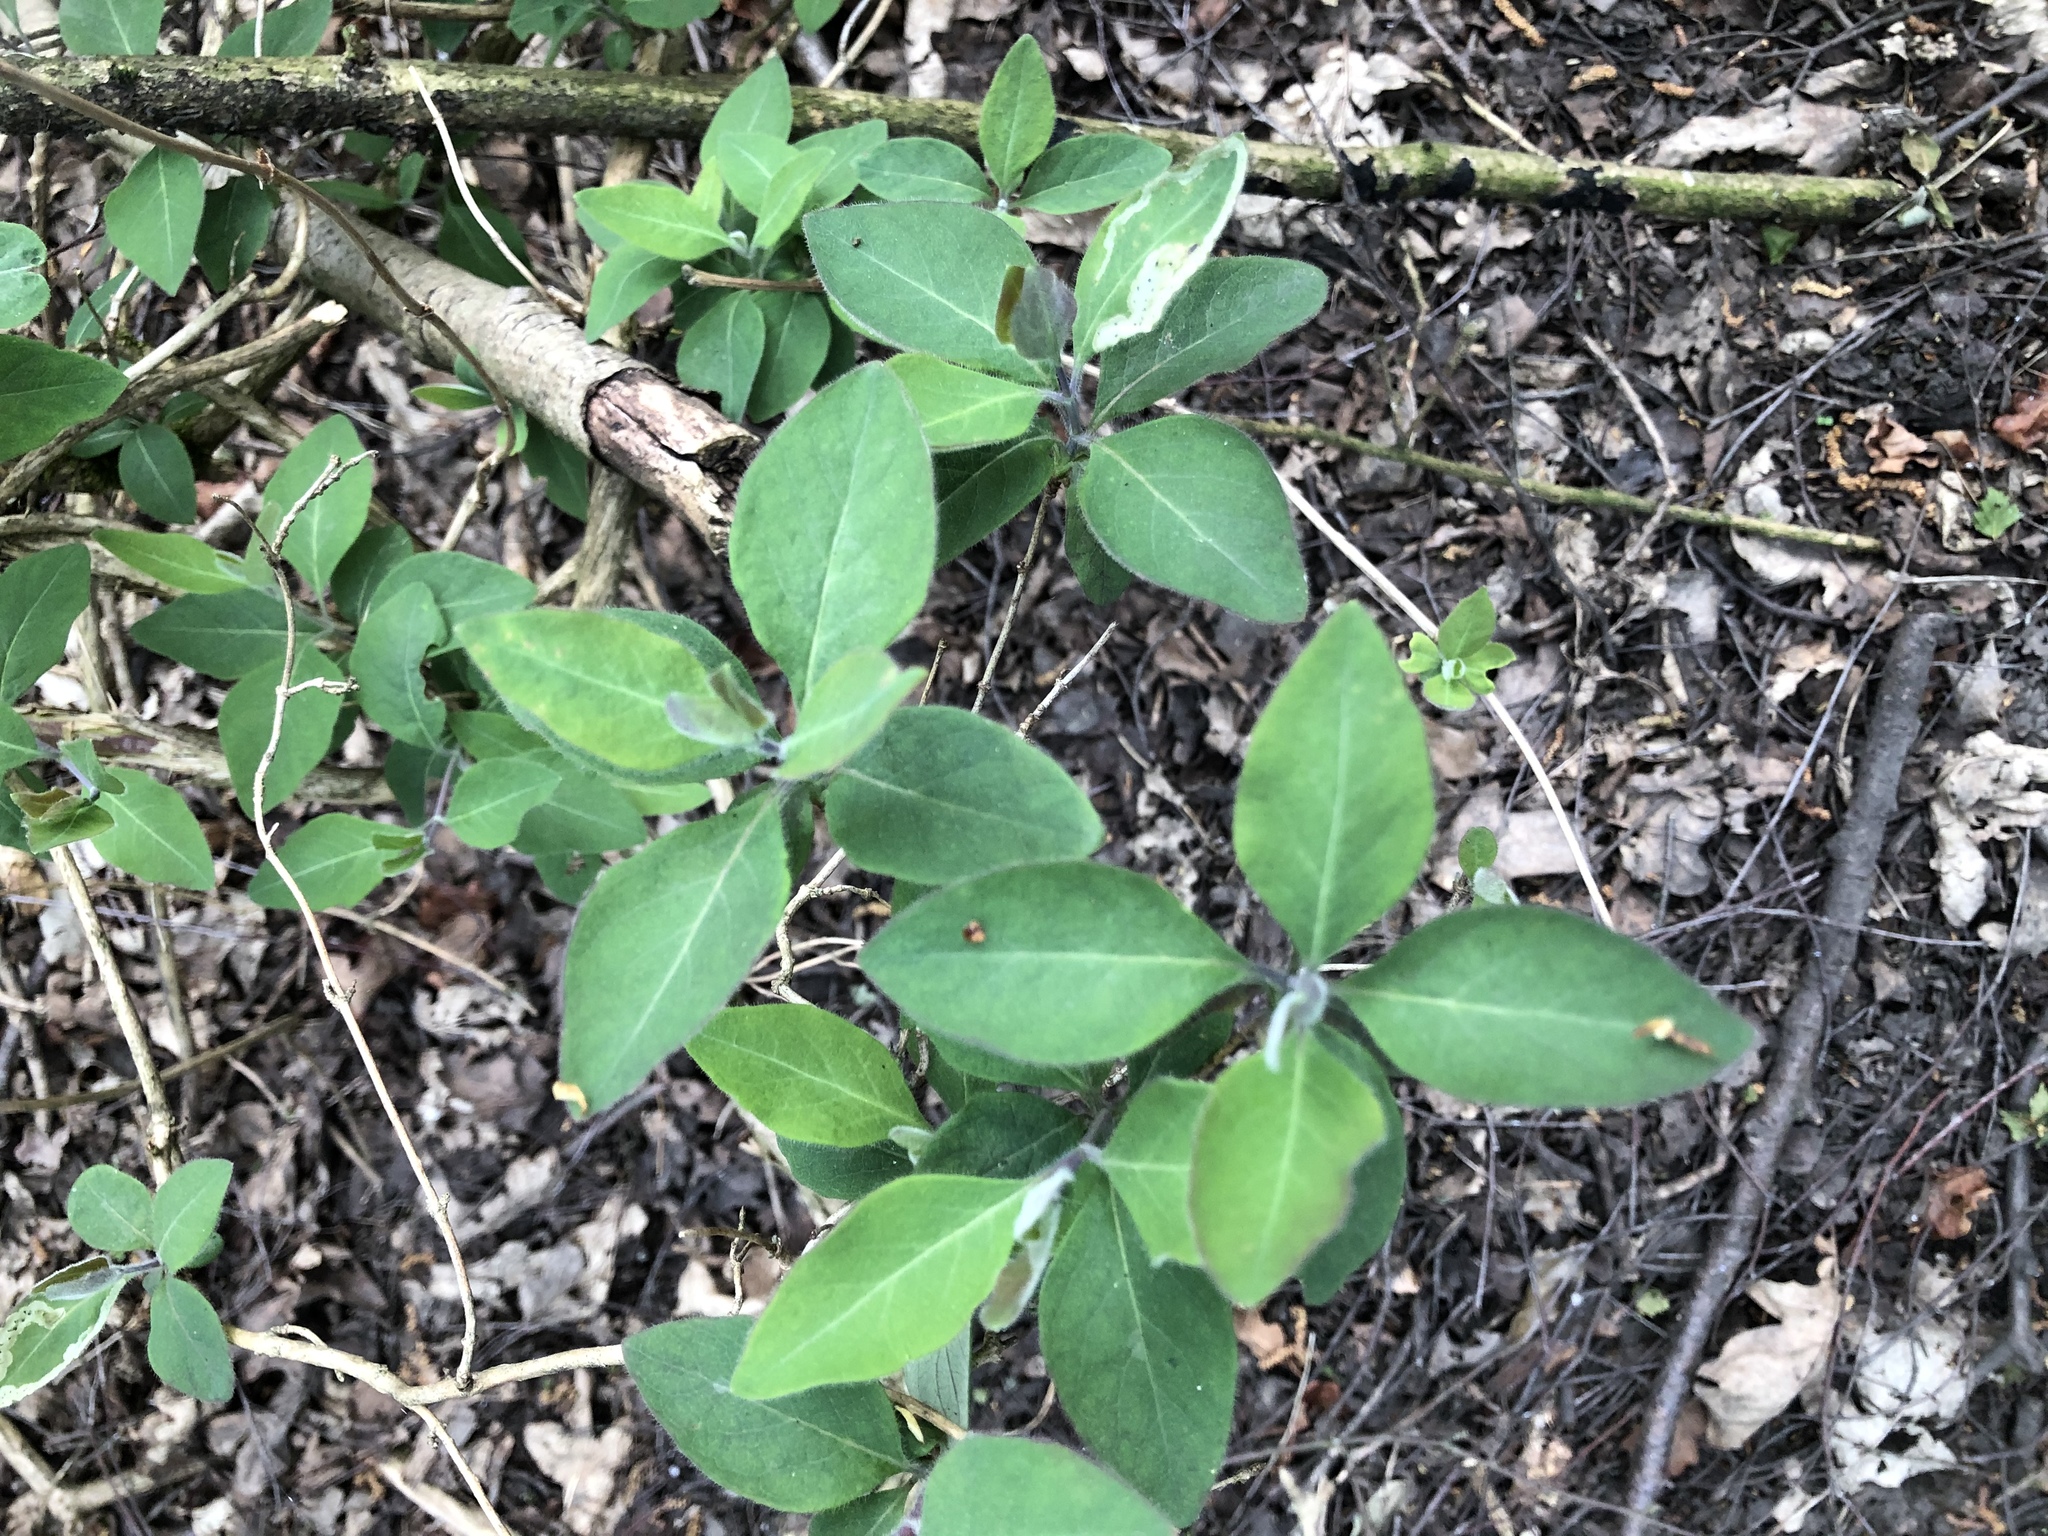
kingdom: Plantae
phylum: Tracheophyta
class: Magnoliopsida
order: Dipsacales
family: Caprifoliaceae
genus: Lonicera
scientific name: Lonicera periclymenum
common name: European honeysuckle
